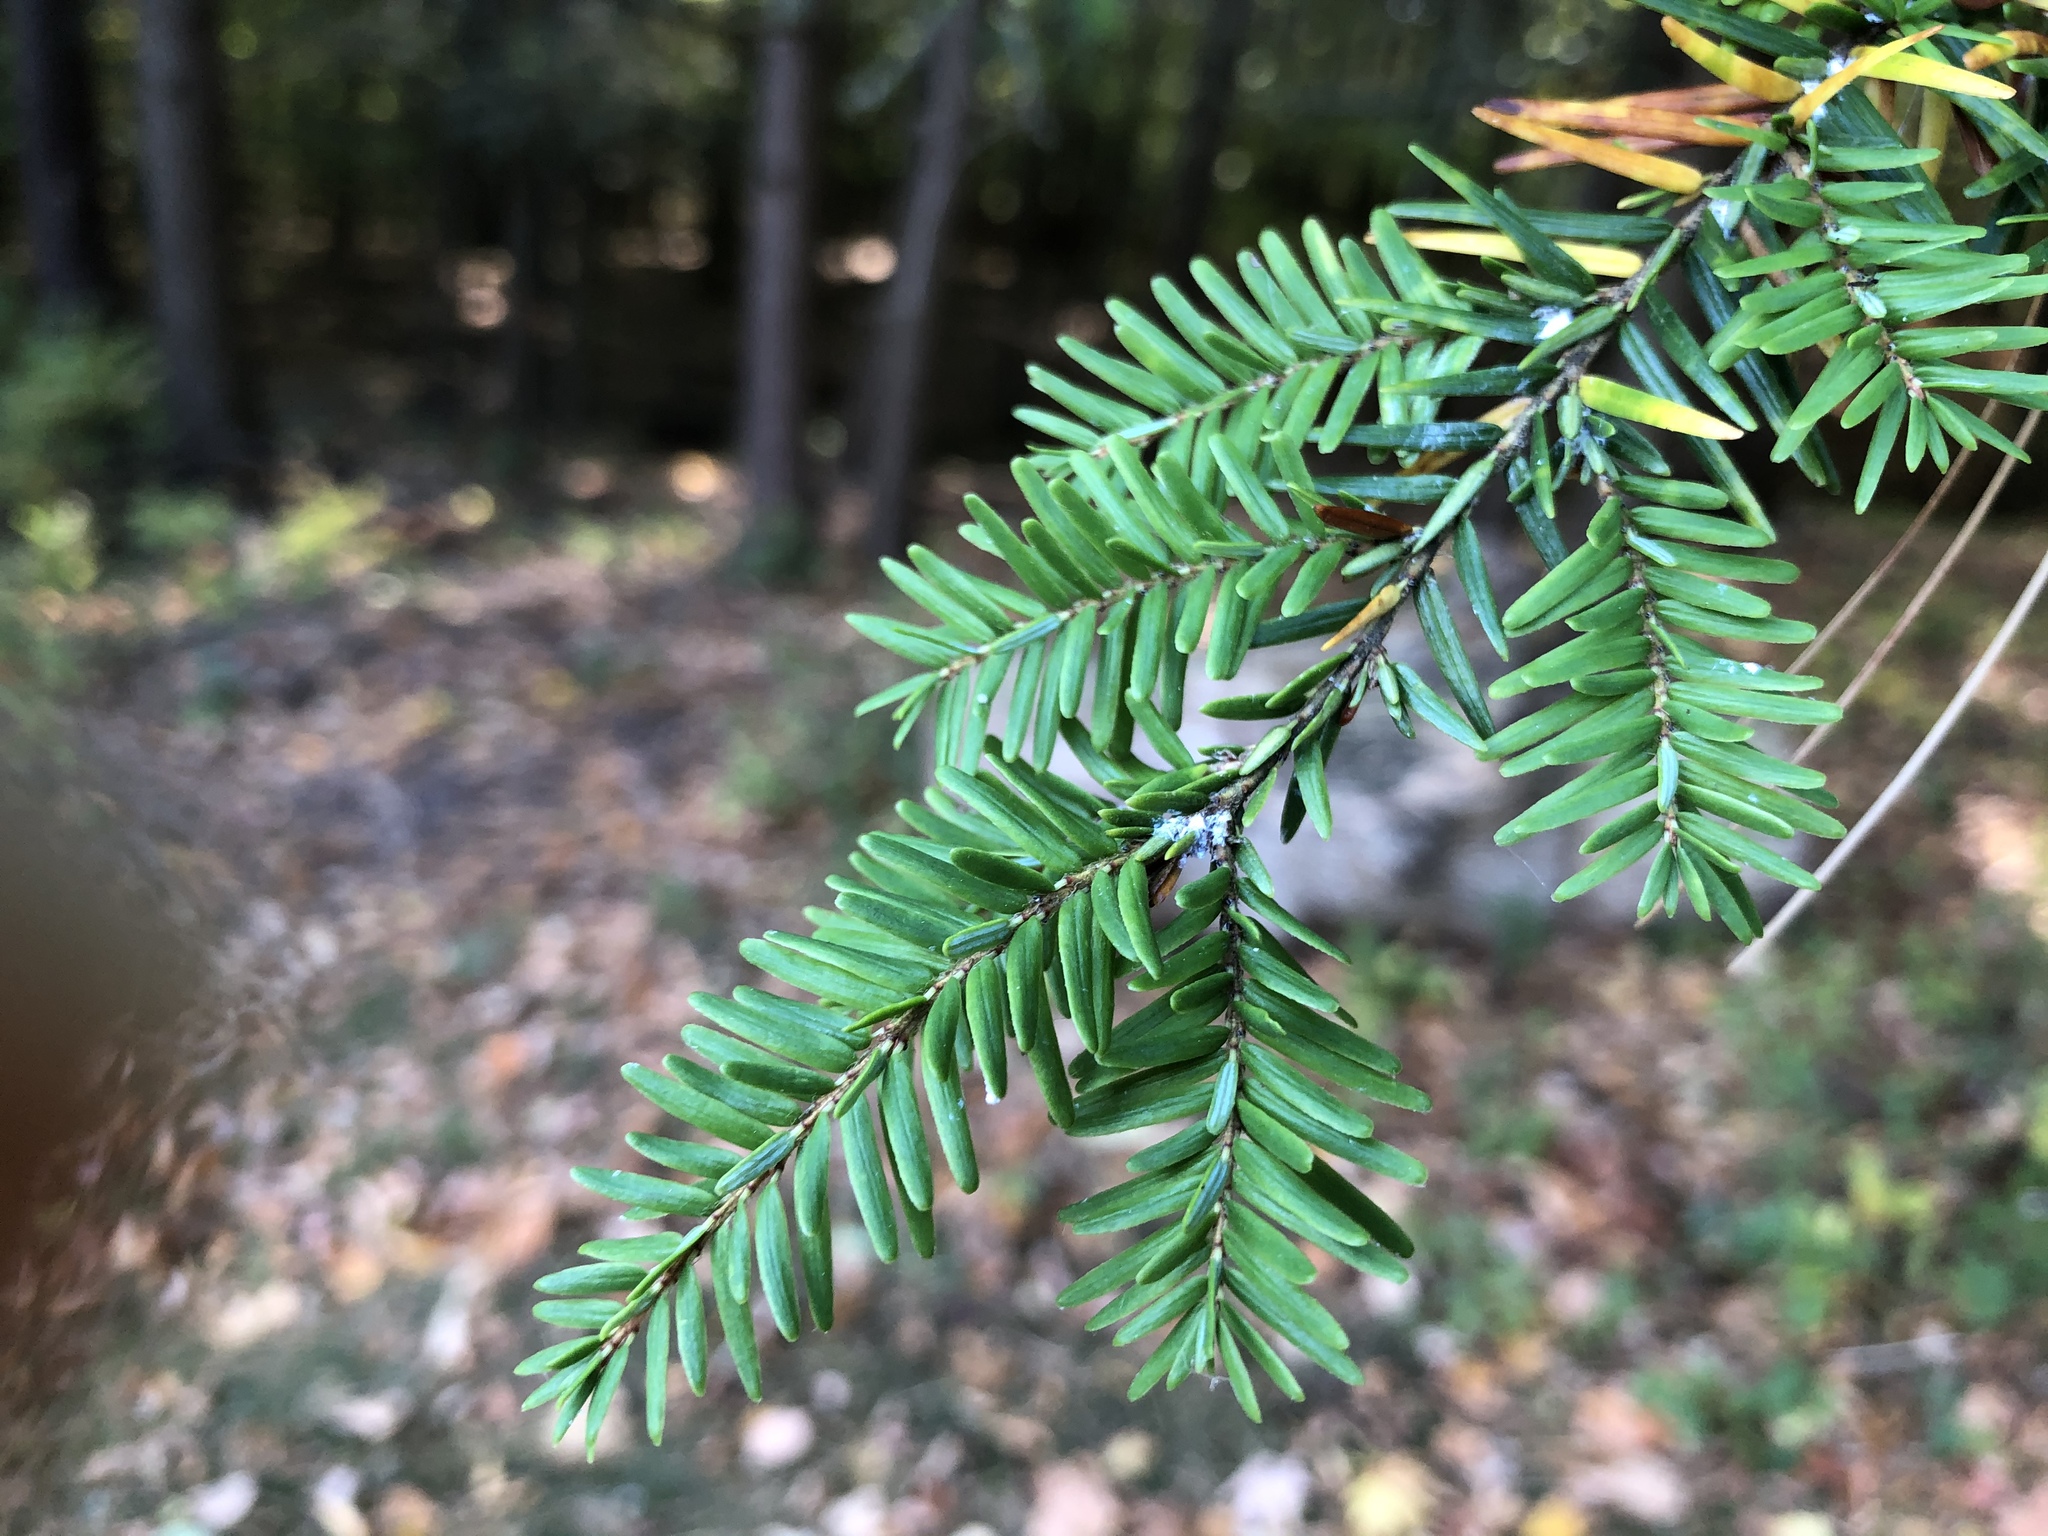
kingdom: Plantae
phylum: Tracheophyta
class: Pinopsida
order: Pinales
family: Pinaceae
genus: Tsuga
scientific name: Tsuga canadensis
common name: Eastern hemlock
